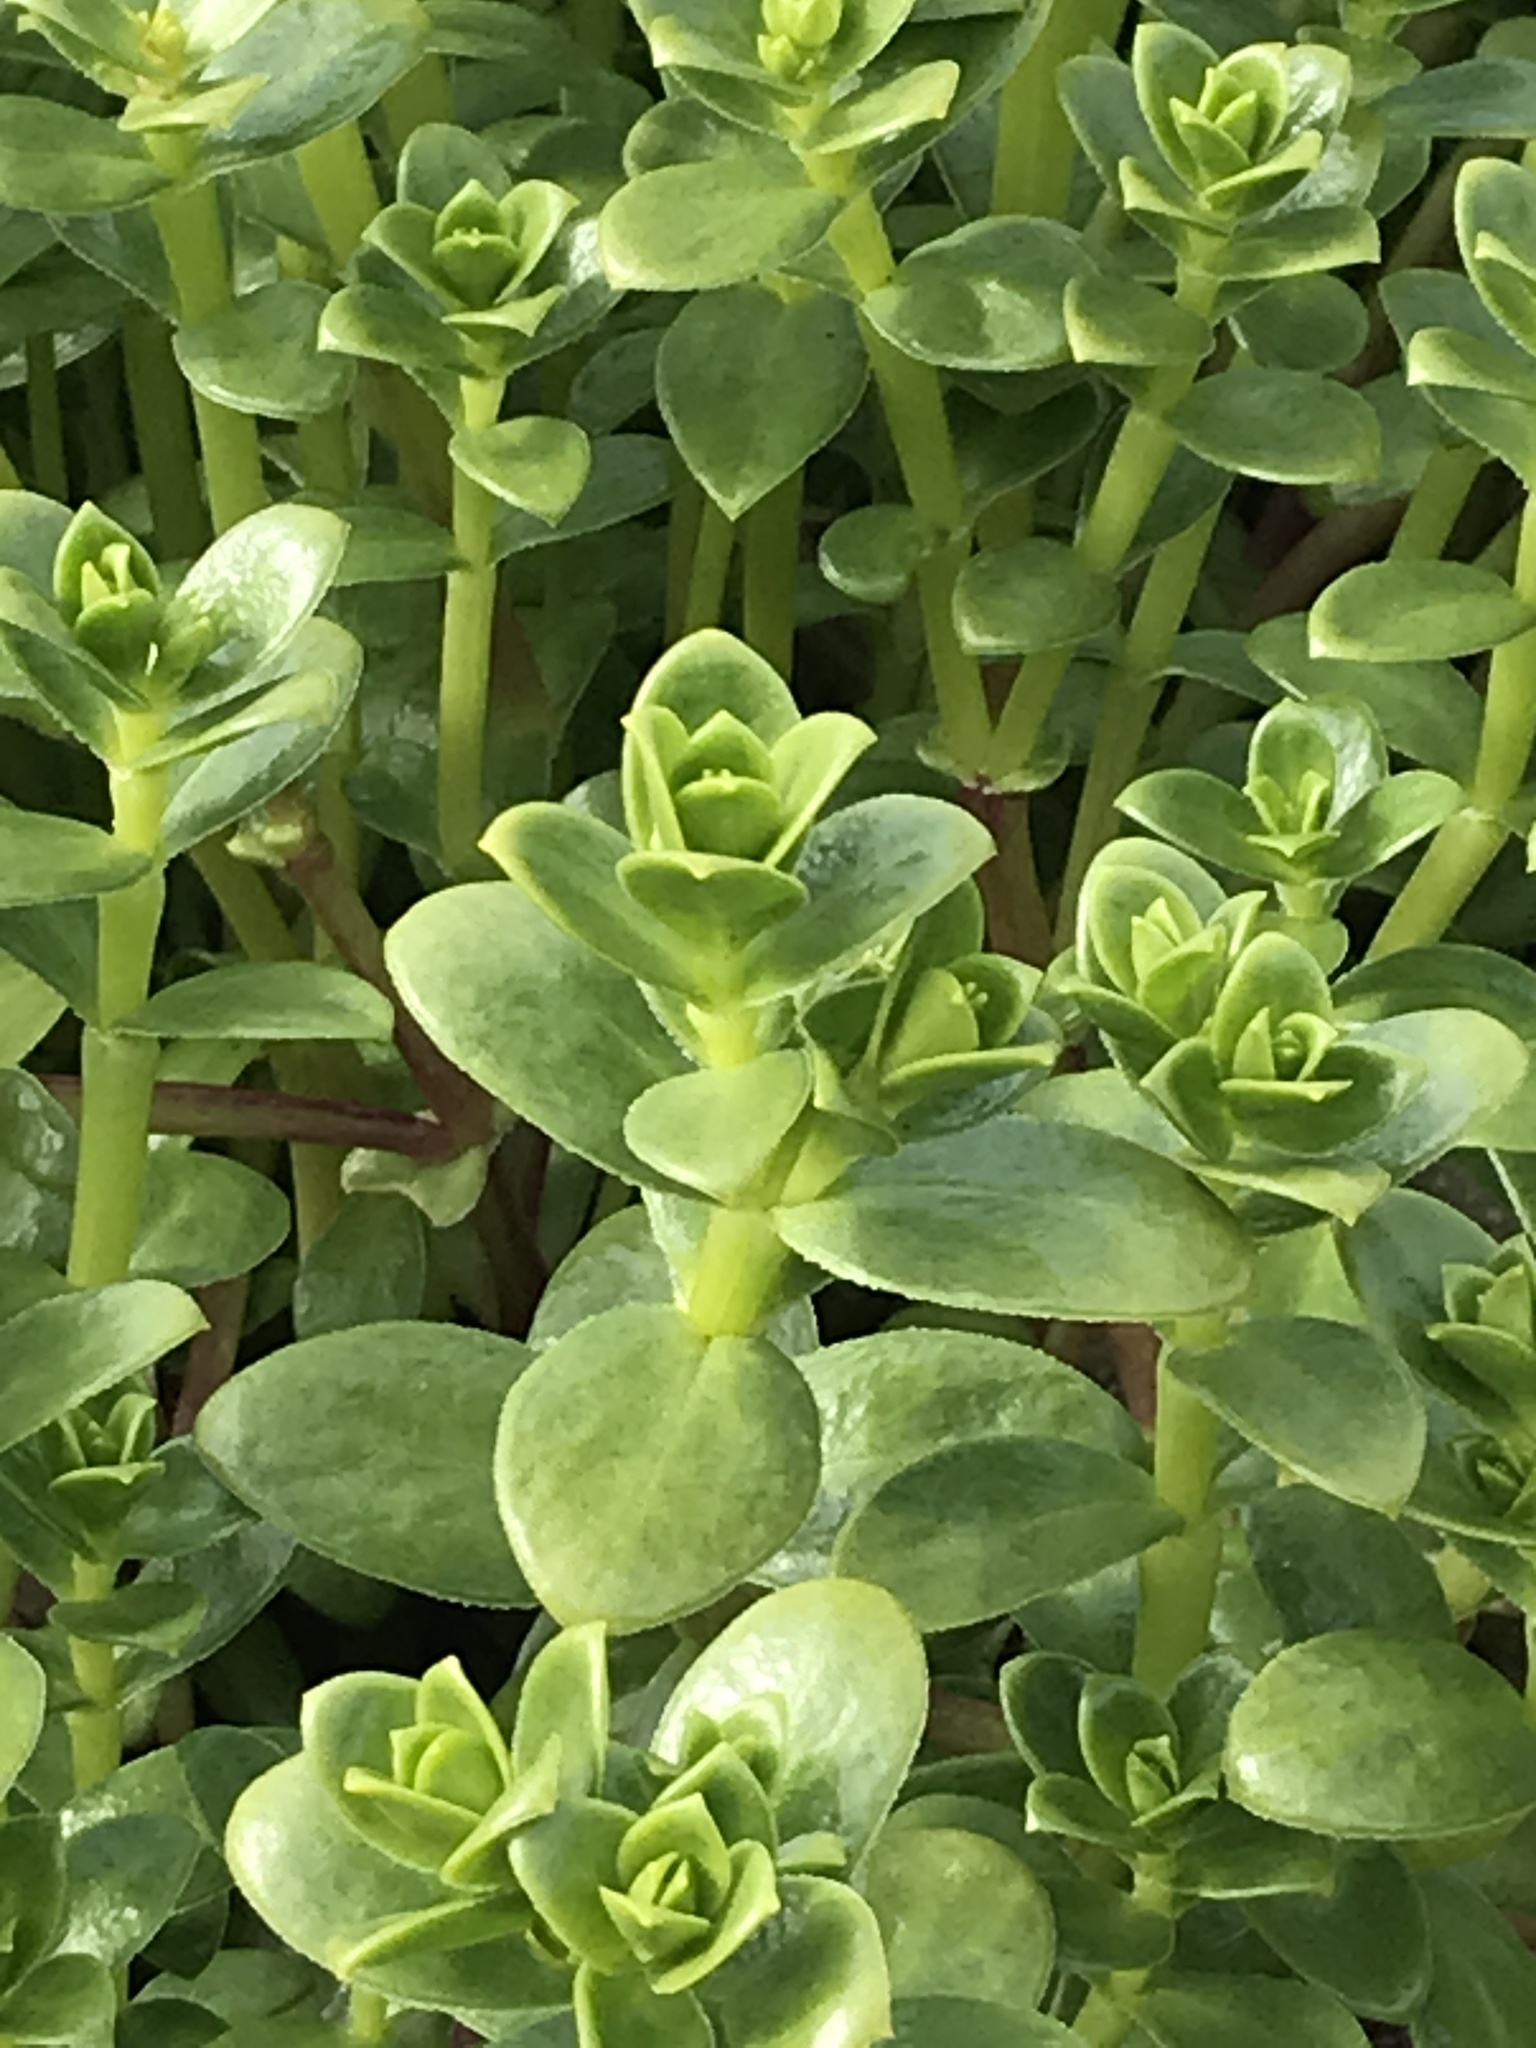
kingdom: Plantae
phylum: Tracheophyta
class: Magnoliopsida
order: Caryophyllales
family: Caryophyllaceae
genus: Honckenya
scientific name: Honckenya peploides
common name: Sea sandwort
